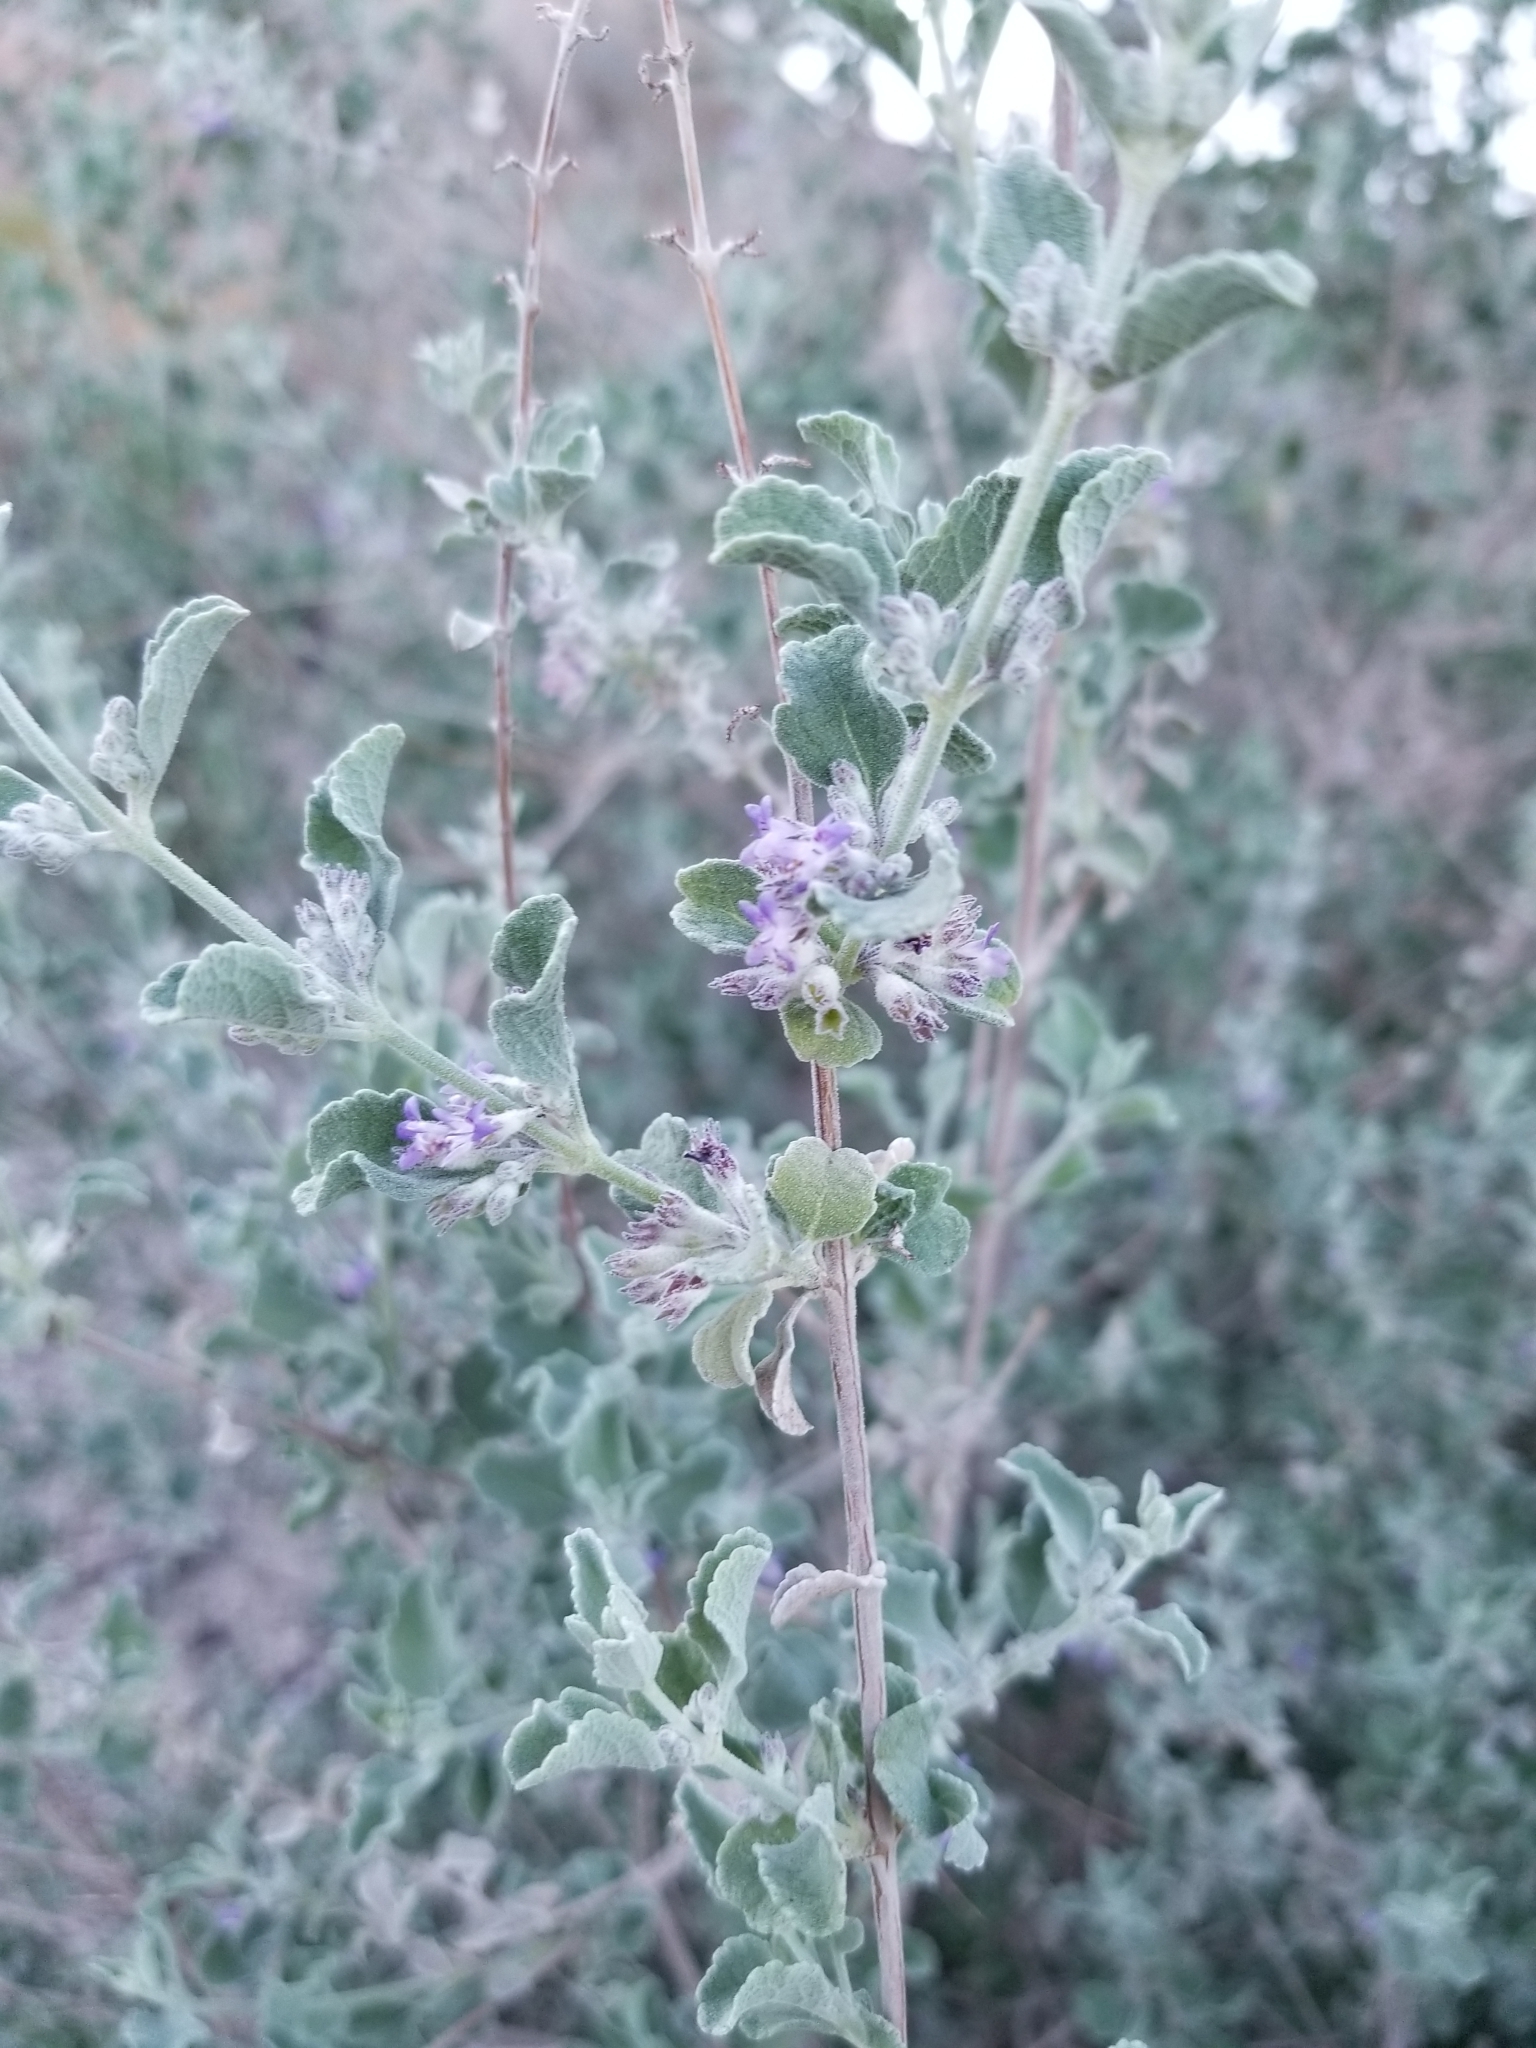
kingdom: Plantae
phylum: Tracheophyta
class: Magnoliopsida
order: Lamiales
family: Lamiaceae
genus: Condea
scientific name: Condea emoryi
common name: Chia
